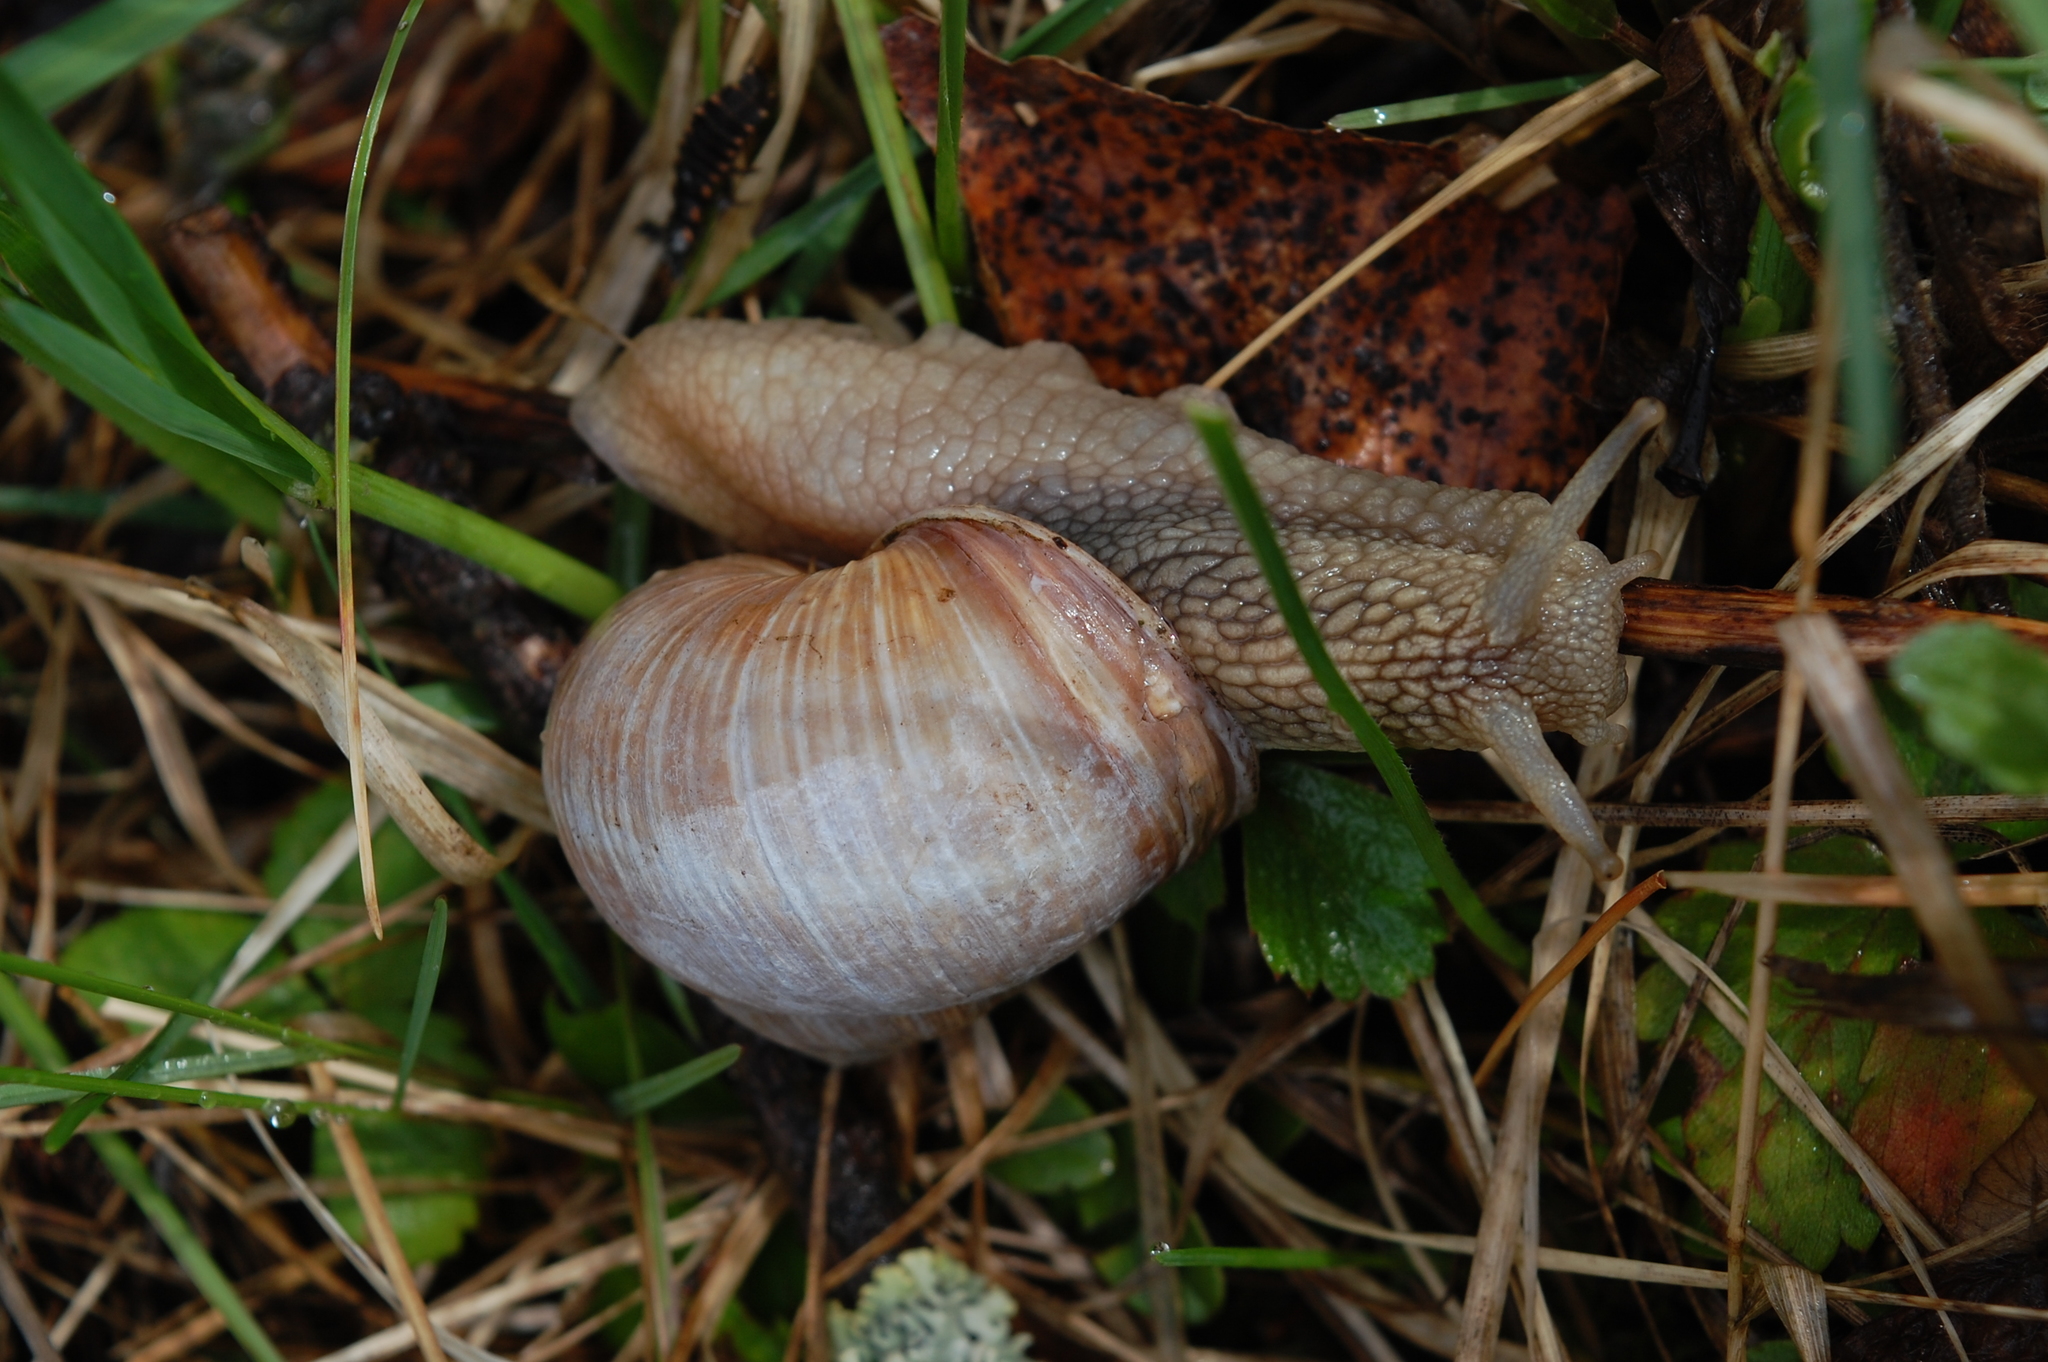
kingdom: Animalia
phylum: Mollusca
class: Gastropoda
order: Stylommatophora
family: Helicidae
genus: Helix
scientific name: Helix pomatia
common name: Roman snail
